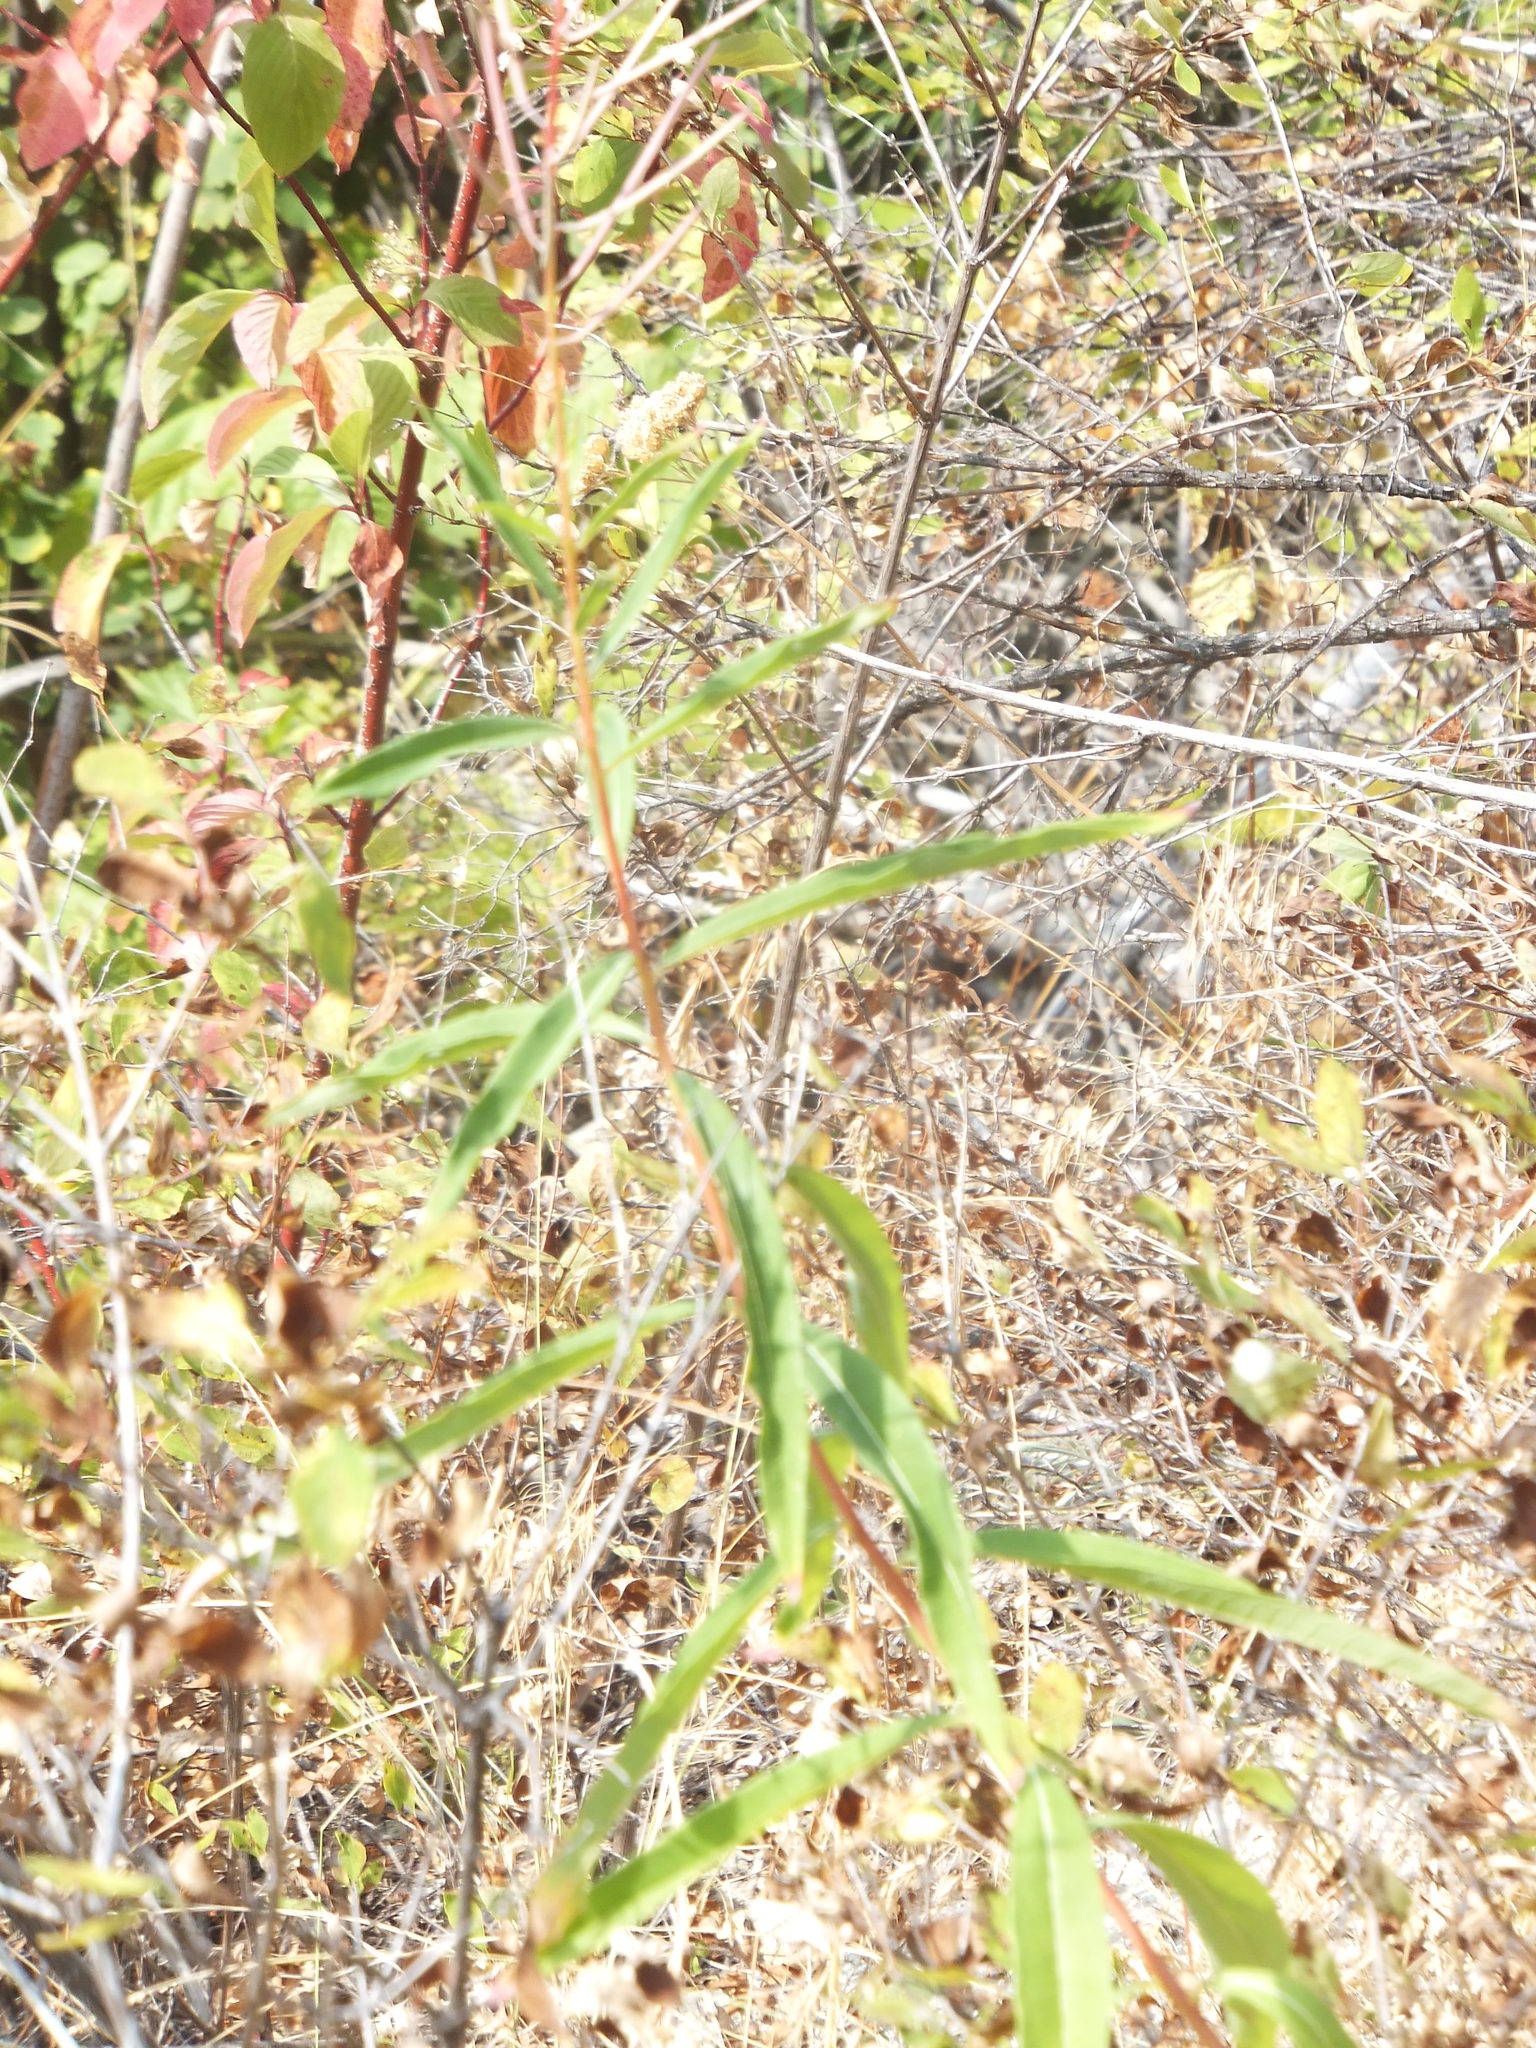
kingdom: Plantae
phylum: Tracheophyta
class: Magnoliopsida
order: Myrtales
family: Onagraceae
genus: Chamaenerion
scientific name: Chamaenerion angustifolium
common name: Fireweed
